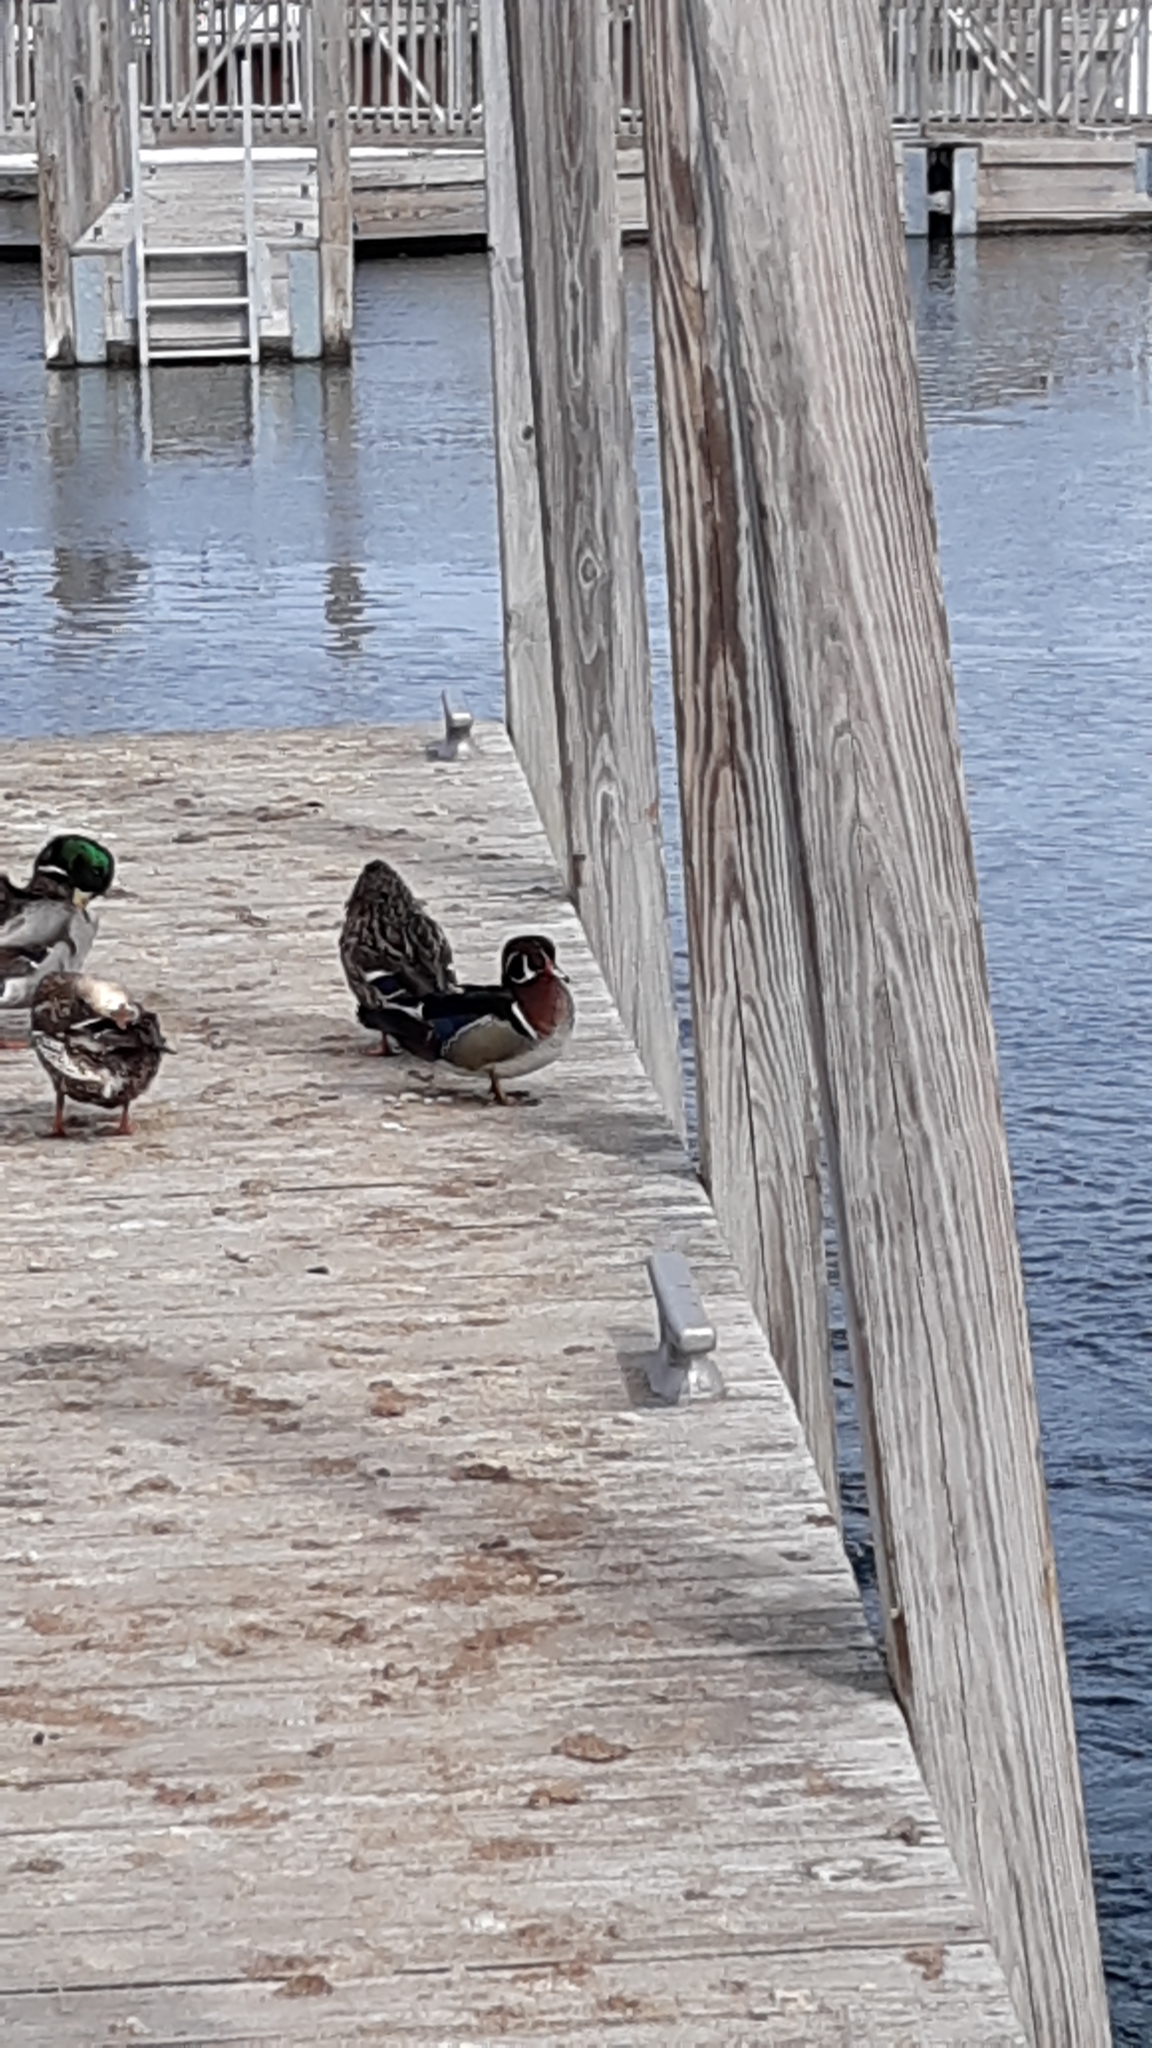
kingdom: Animalia
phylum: Chordata
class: Aves
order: Anseriformes
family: Anatidae
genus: Aix
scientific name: Aix sponsa
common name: Wood duck
